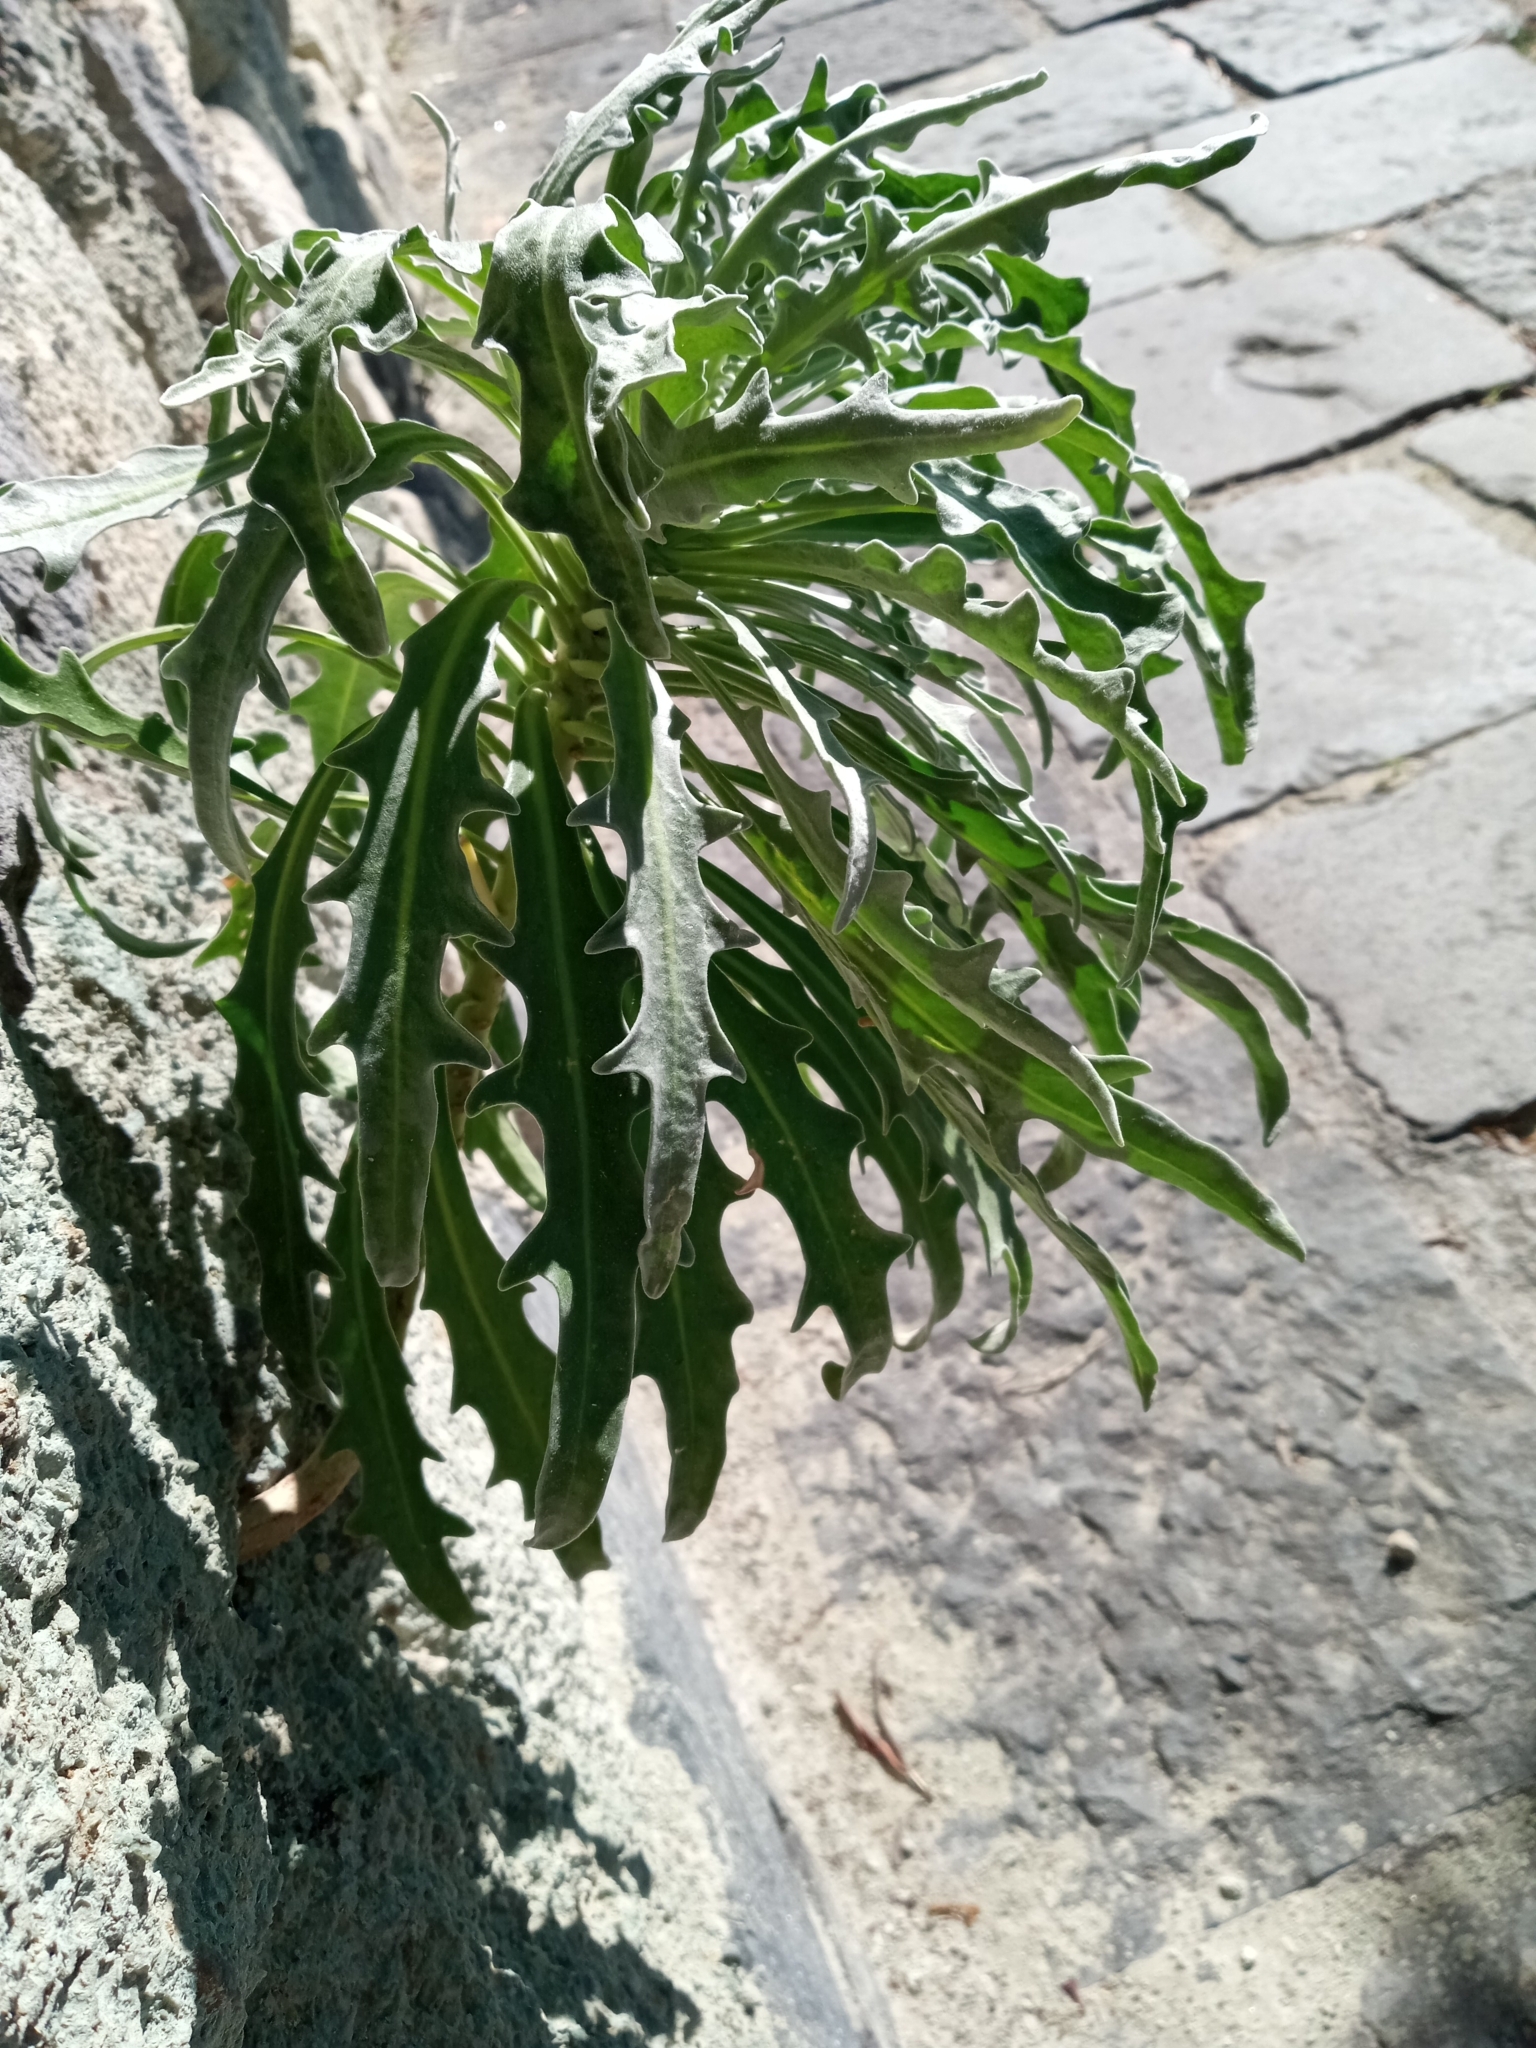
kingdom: Plantae
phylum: Tracheophyta
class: Magnoliopsida
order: Brassicales
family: Brassicaceae
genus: Matthiola
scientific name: Matthiola incana
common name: Hoary stock
